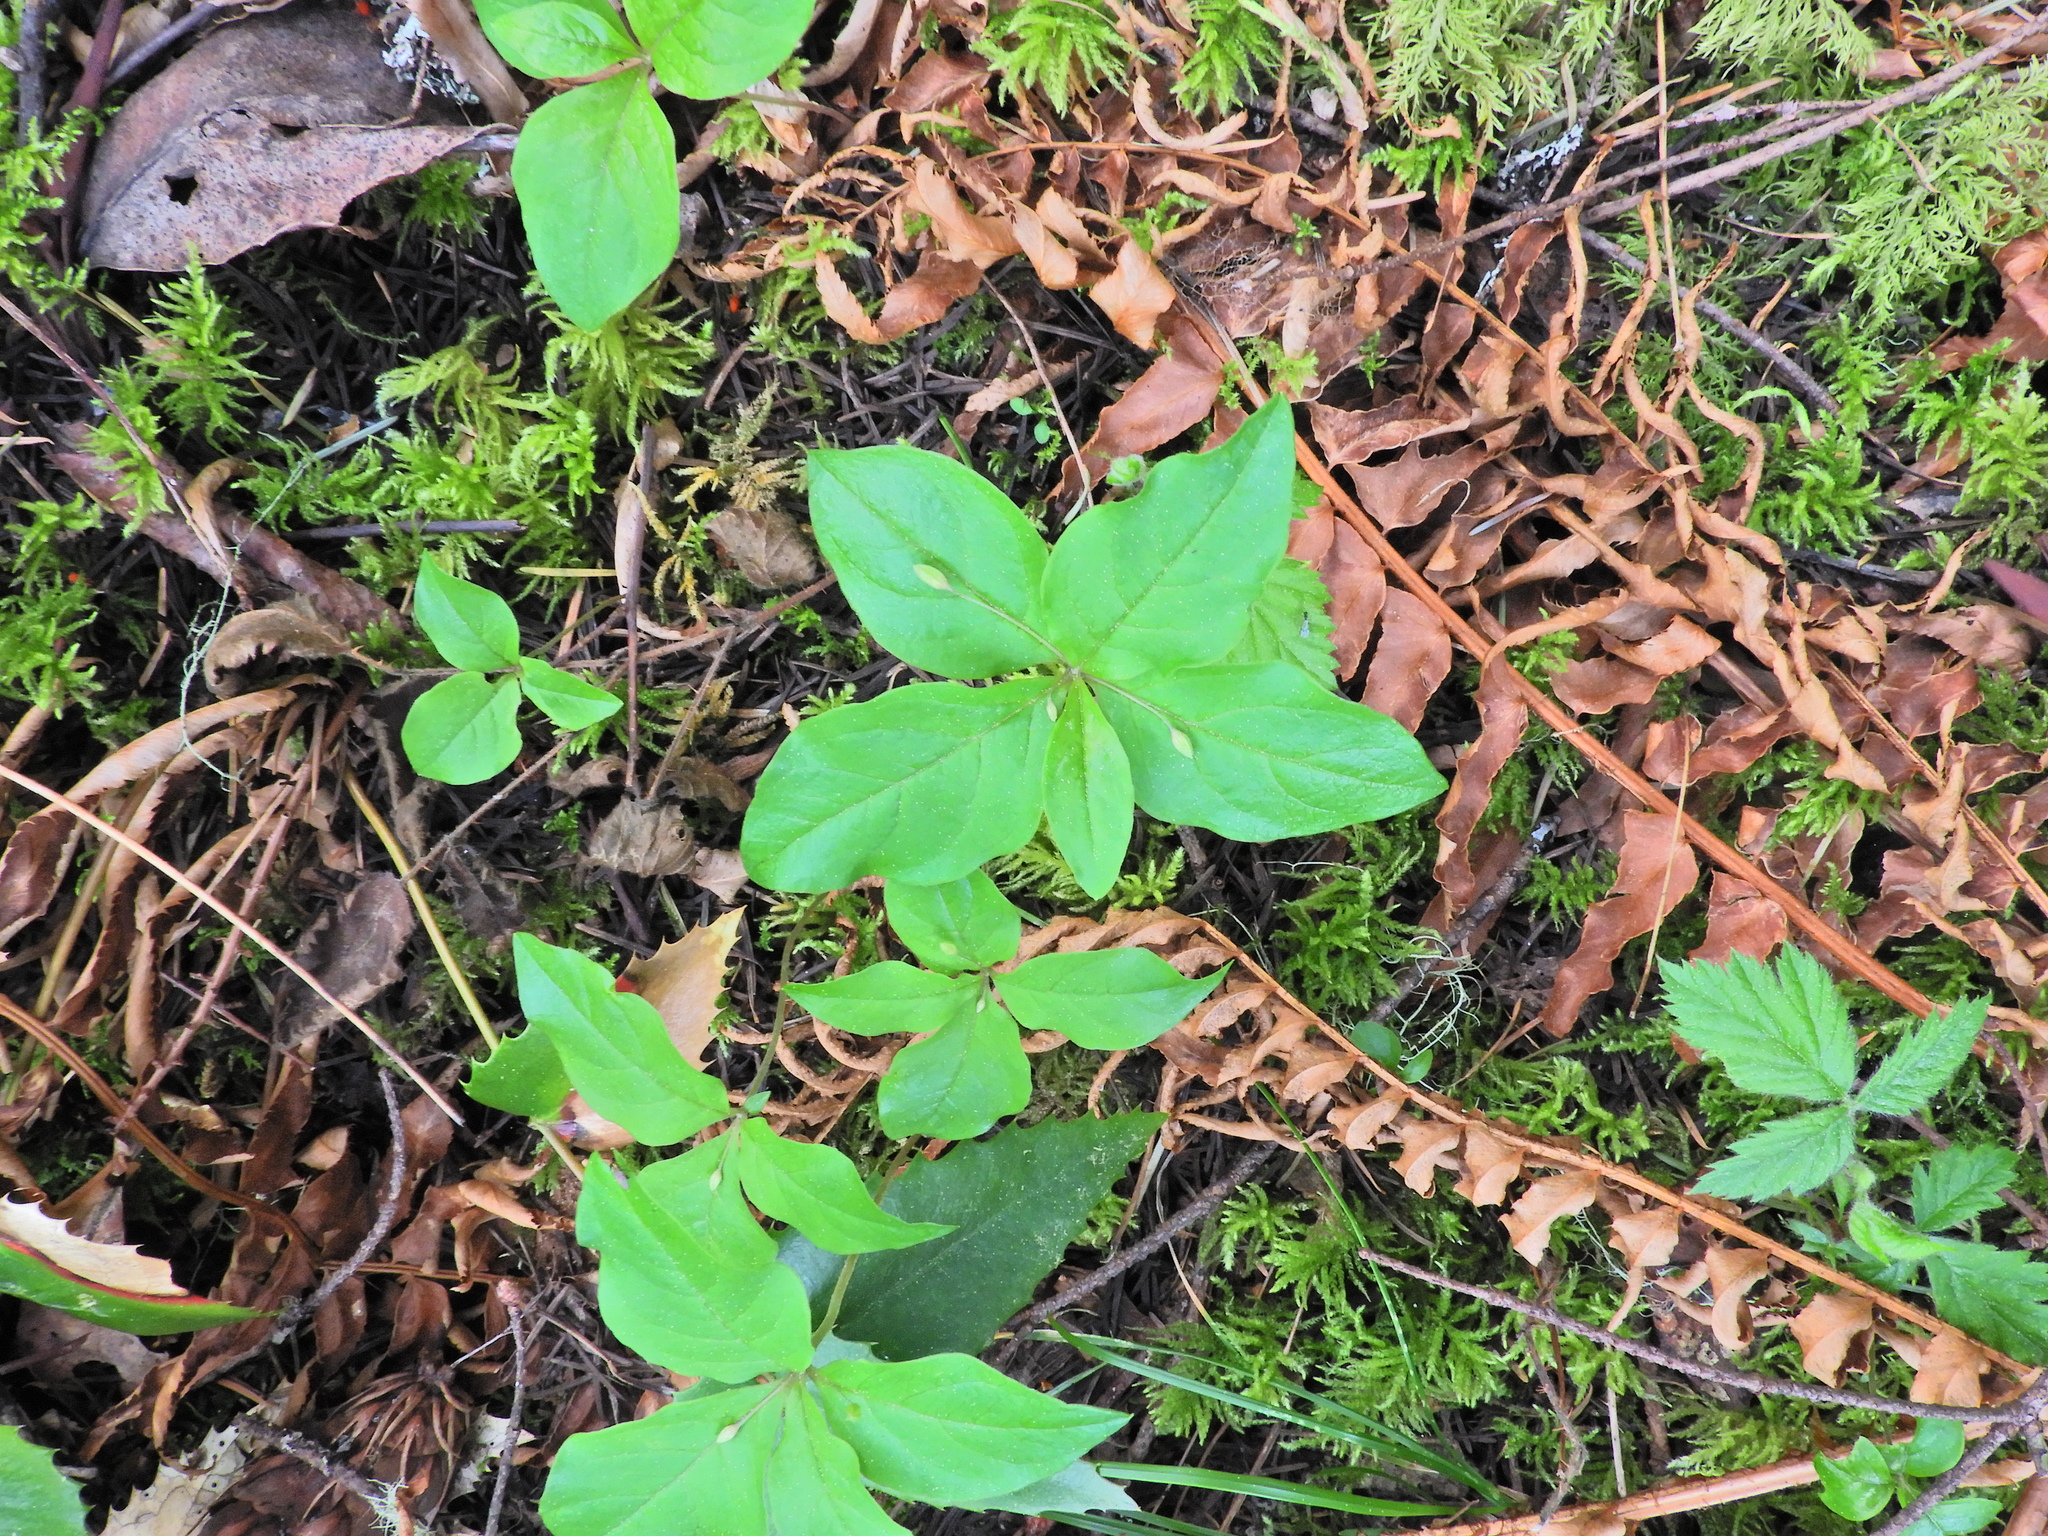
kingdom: Plantae
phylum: Tracheophyta
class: Magnoliopsida
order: Ericales
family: Primulaceae
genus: Lysimachia
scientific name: Lysimachia latifolia
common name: Pacific starflower
